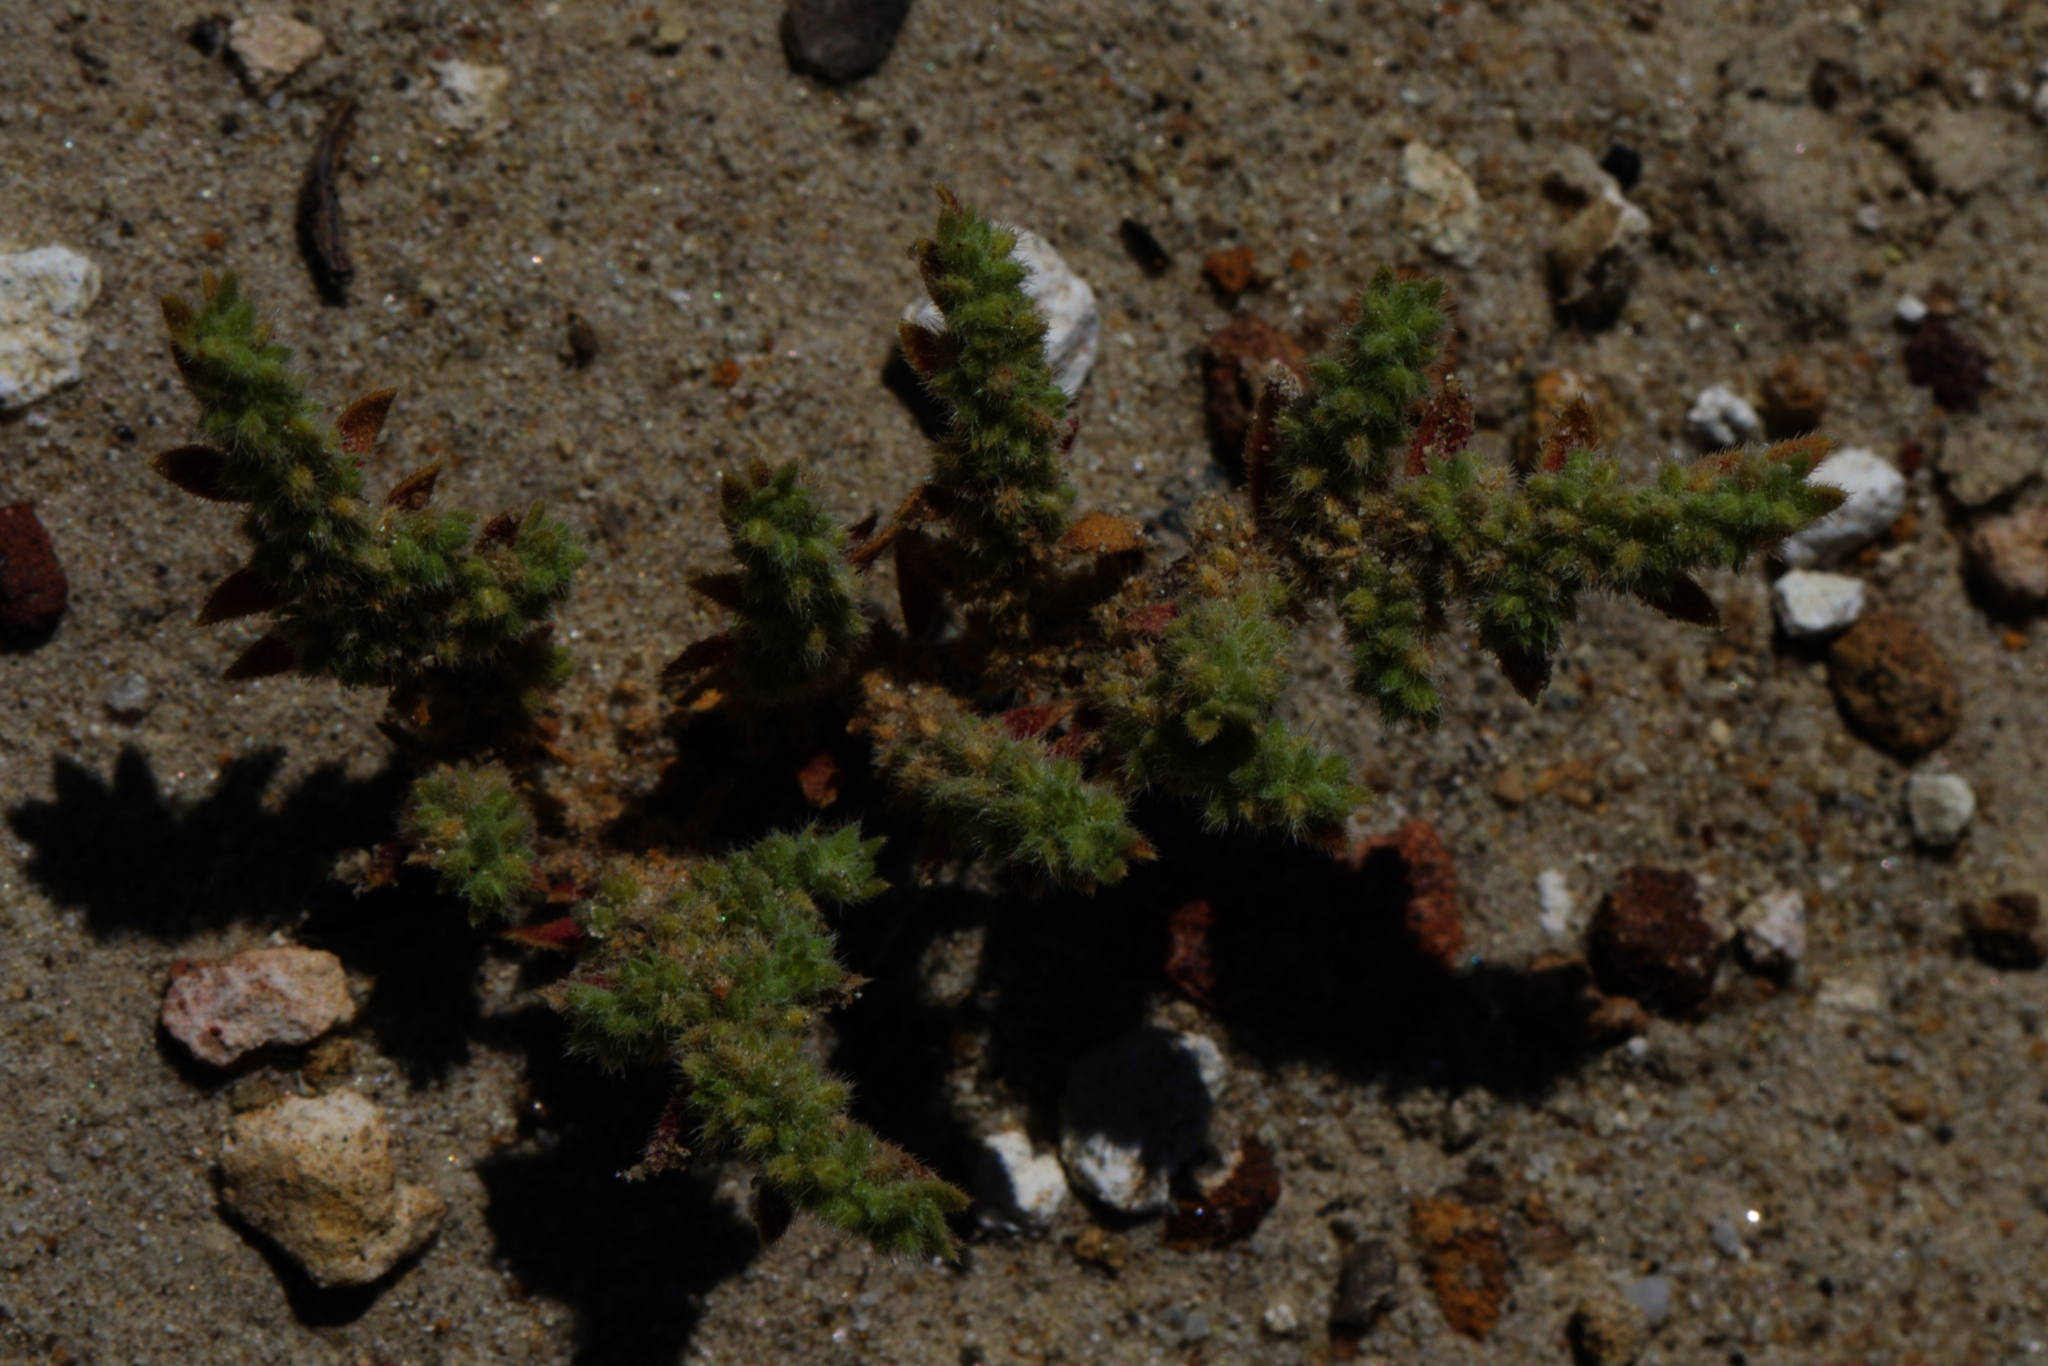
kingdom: Plantae
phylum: Tracheophyta
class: Magnoliopsida
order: Caryophyllales
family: Caryophyllaceae
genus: Herniaria
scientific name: Herniaria hirsuta
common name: Hairy rupturewort
